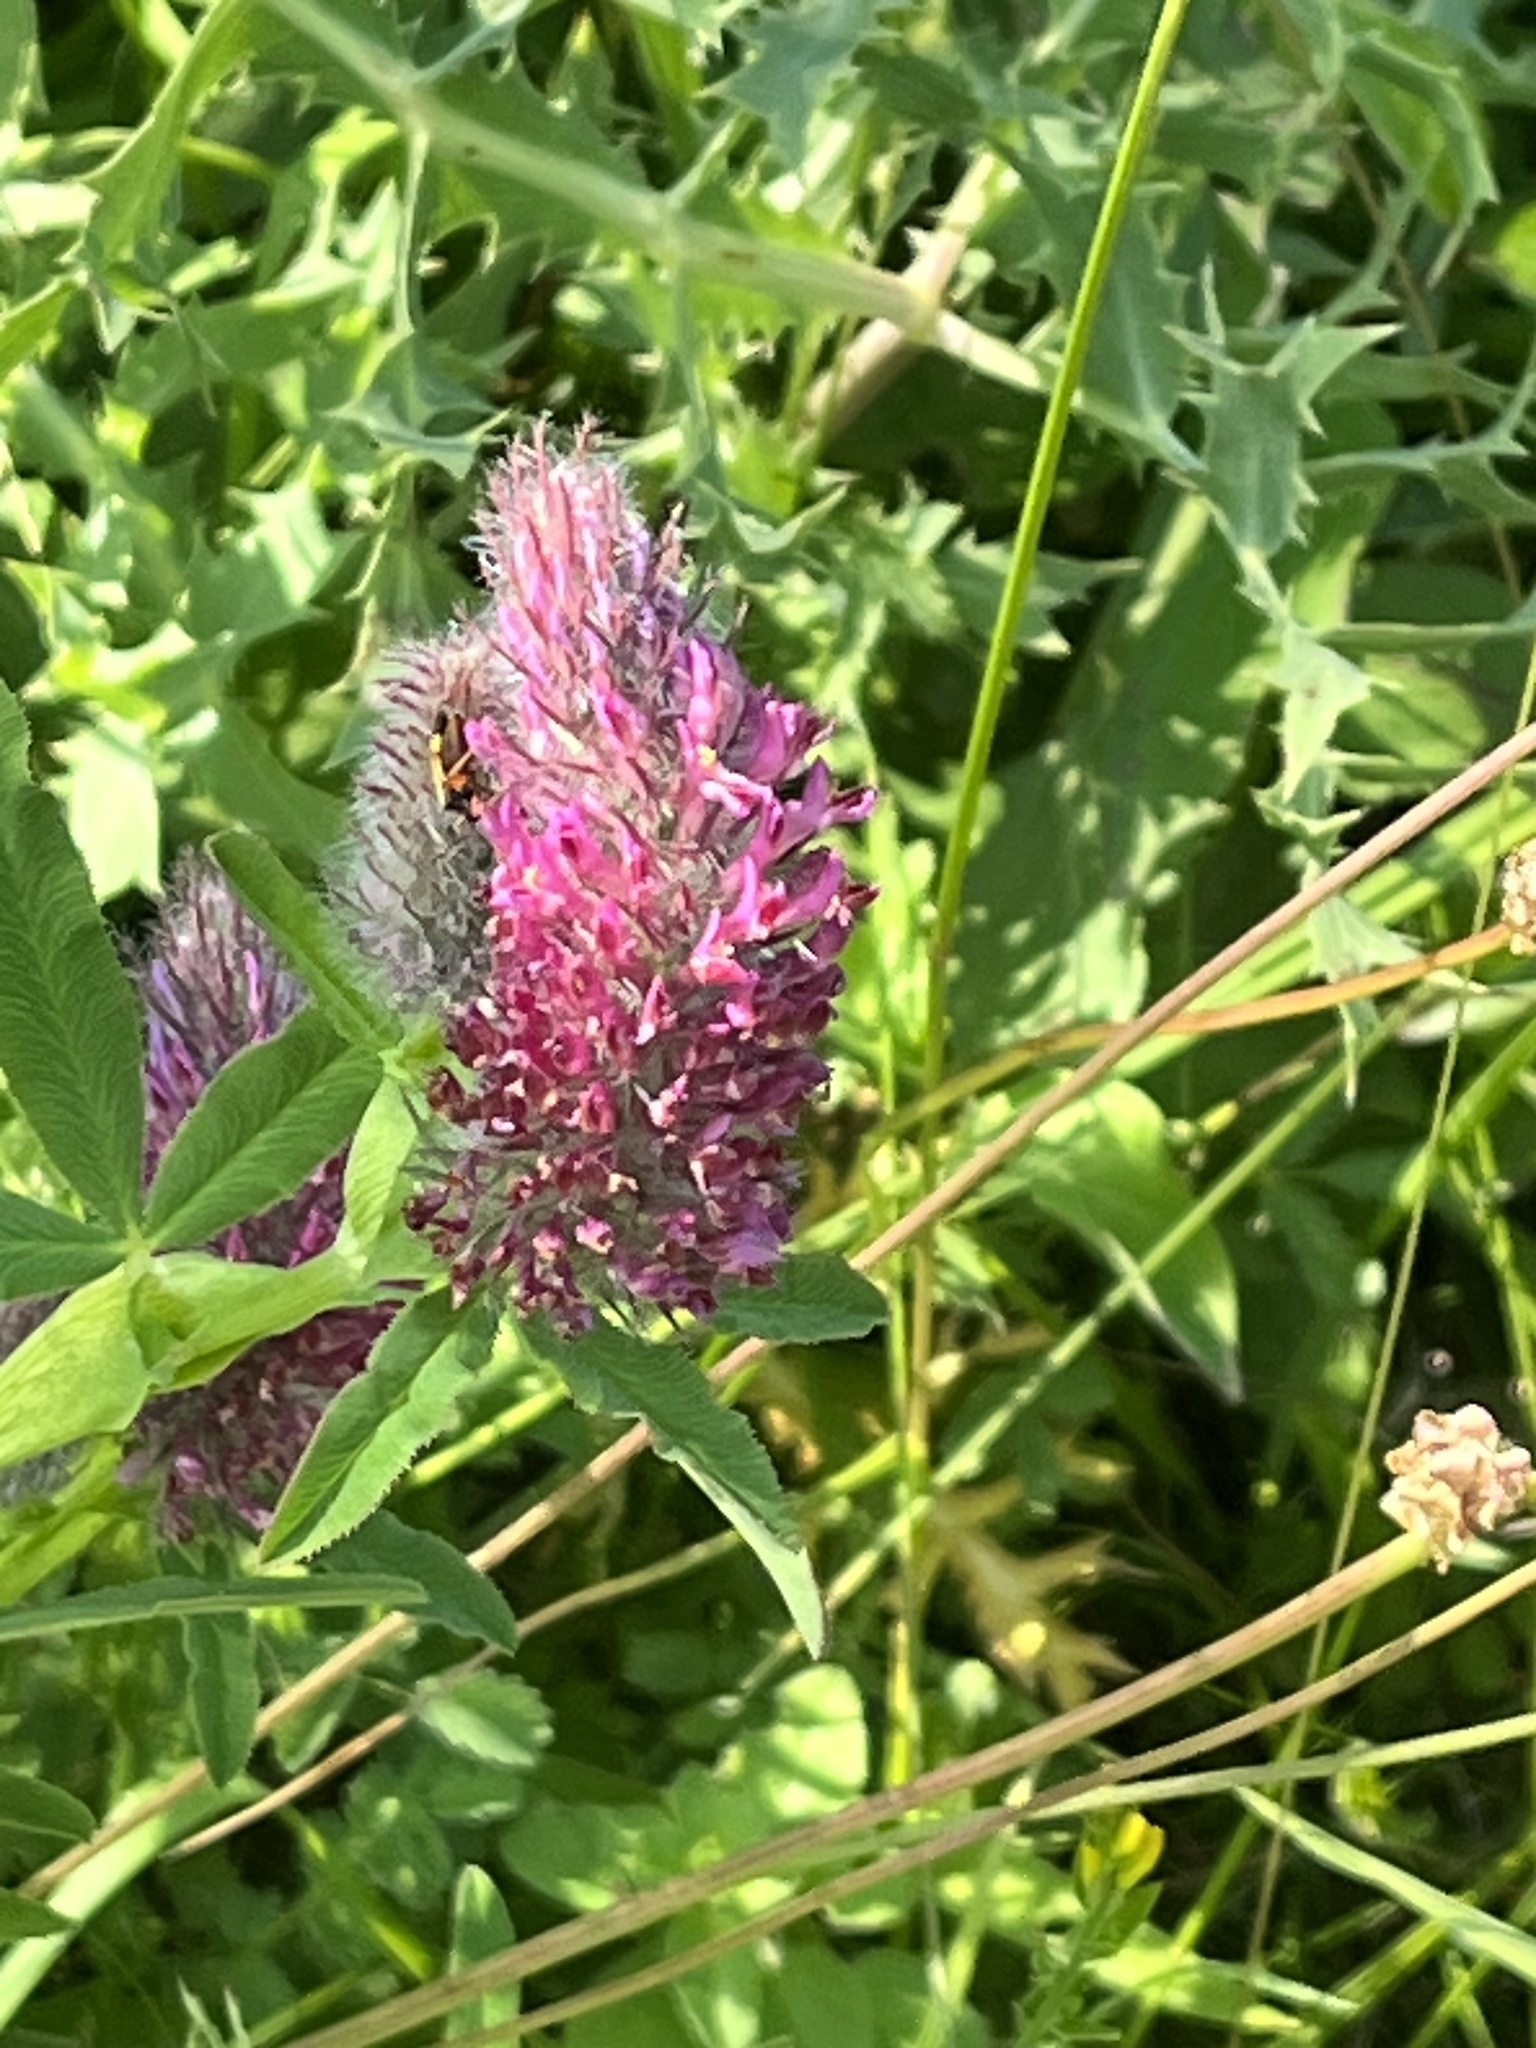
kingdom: Plantae
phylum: Tracheophyta
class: Magnoliopsida
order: Fabales
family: Fabaceae
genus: Trifolium
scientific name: Trifolium rubens
